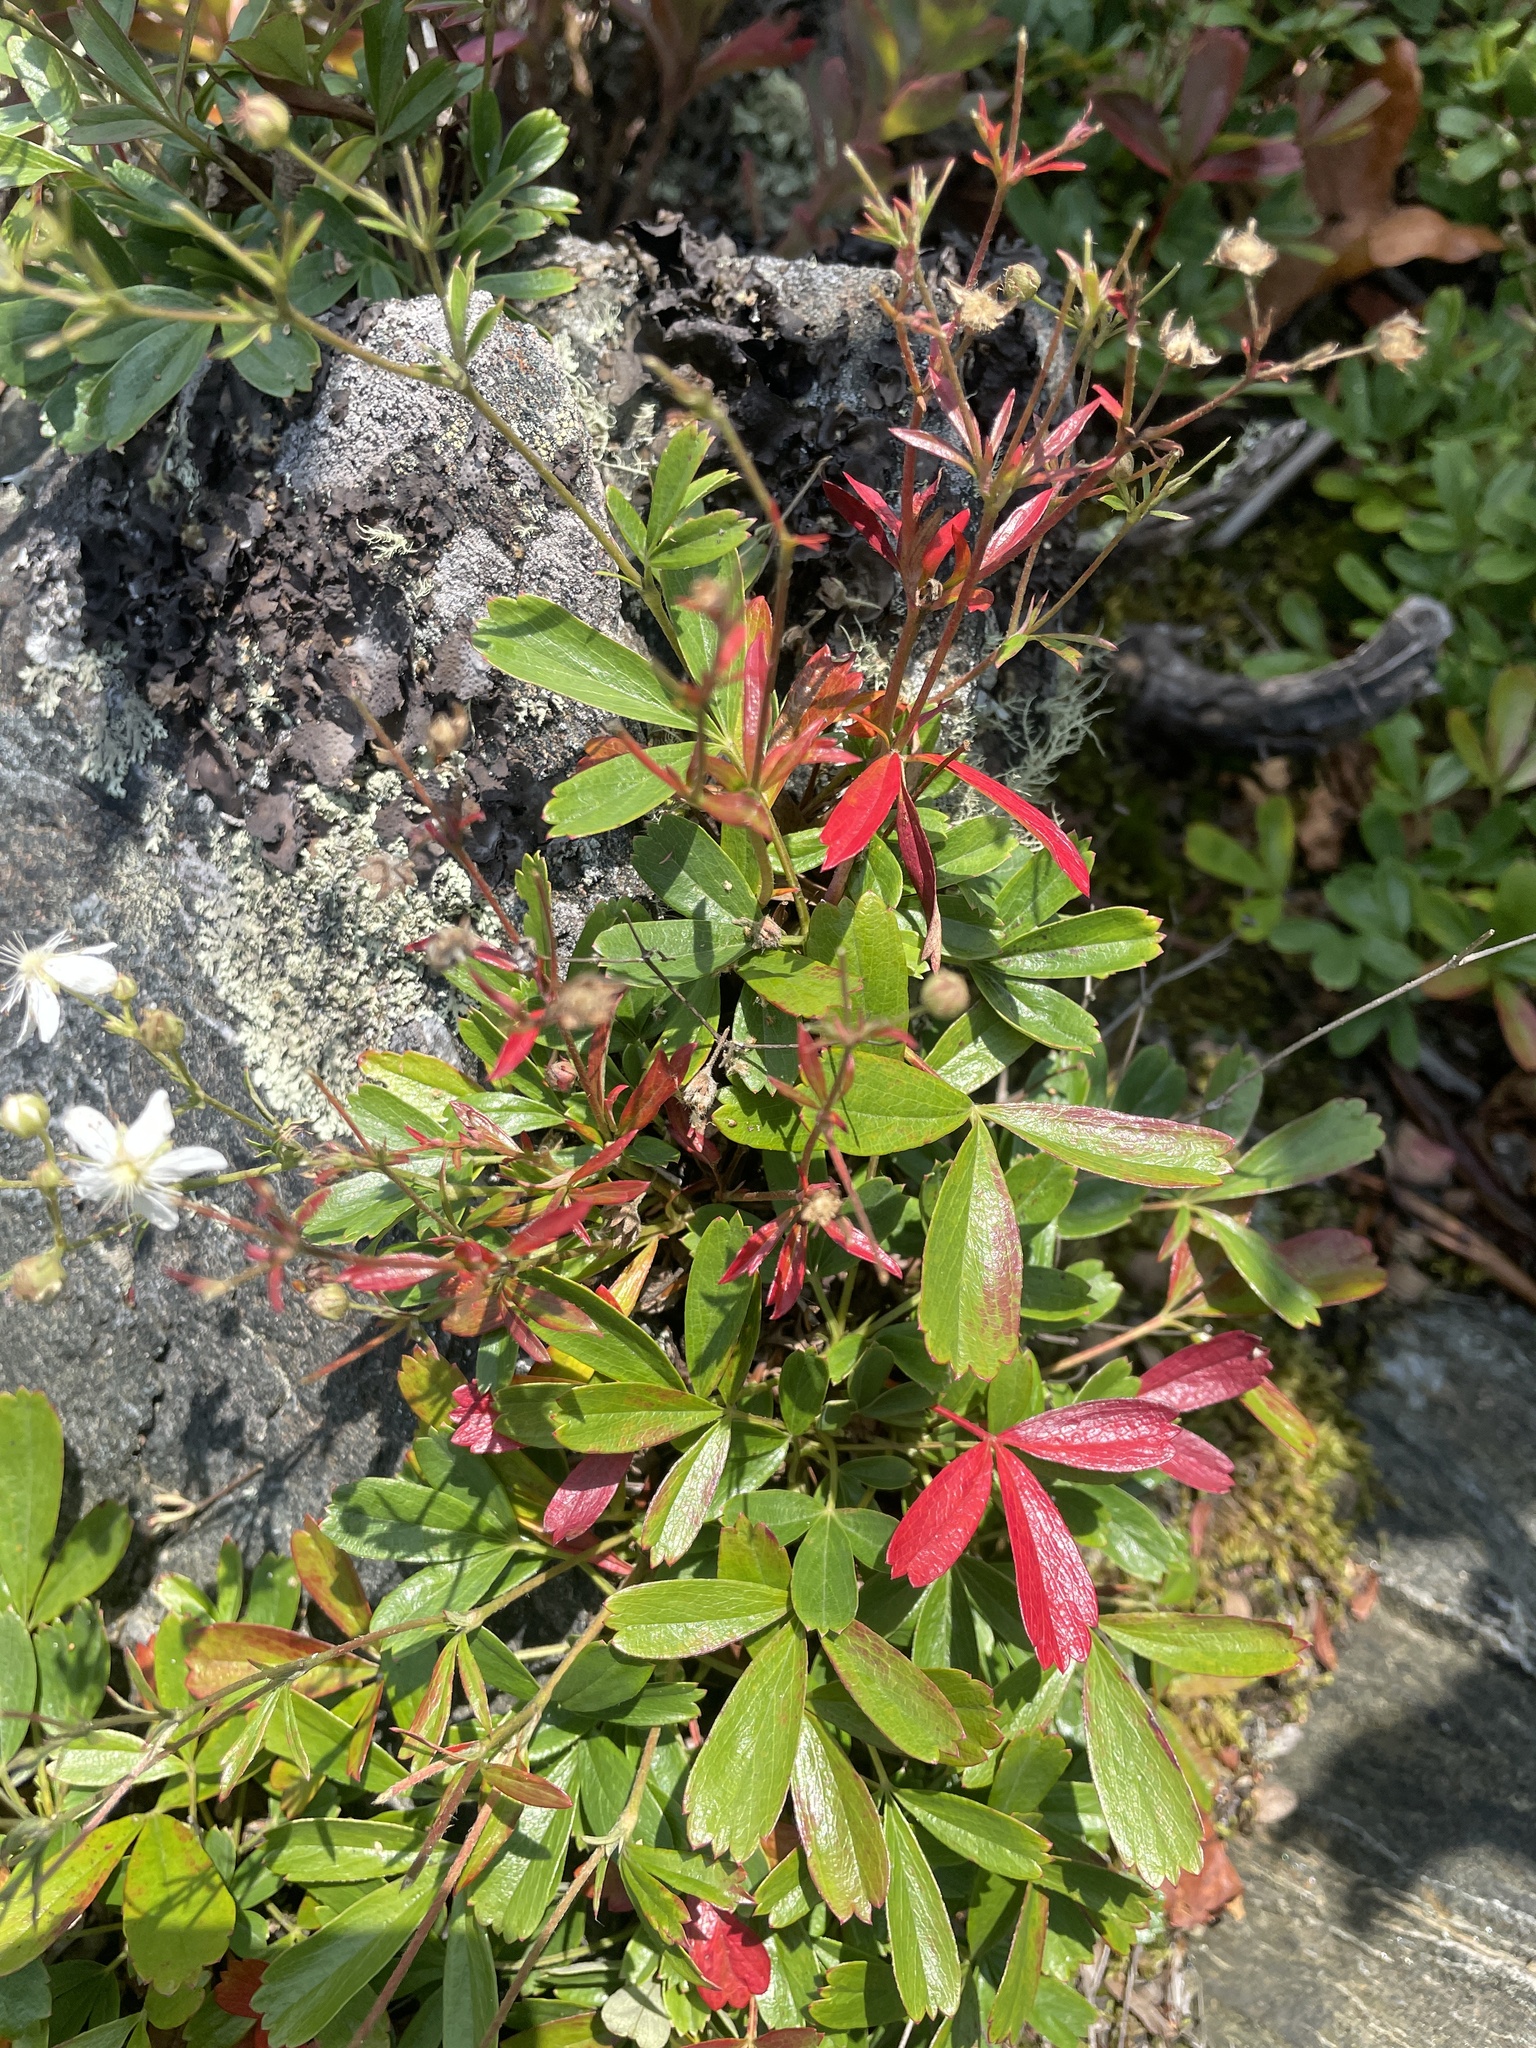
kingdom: Plantae
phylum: Tracheophyta
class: Magnoliopsida
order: Rosales
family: Rosaceae
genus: Sibbaldia
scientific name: Sibbaldia tridentata
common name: Three-toothed cinquefoil
